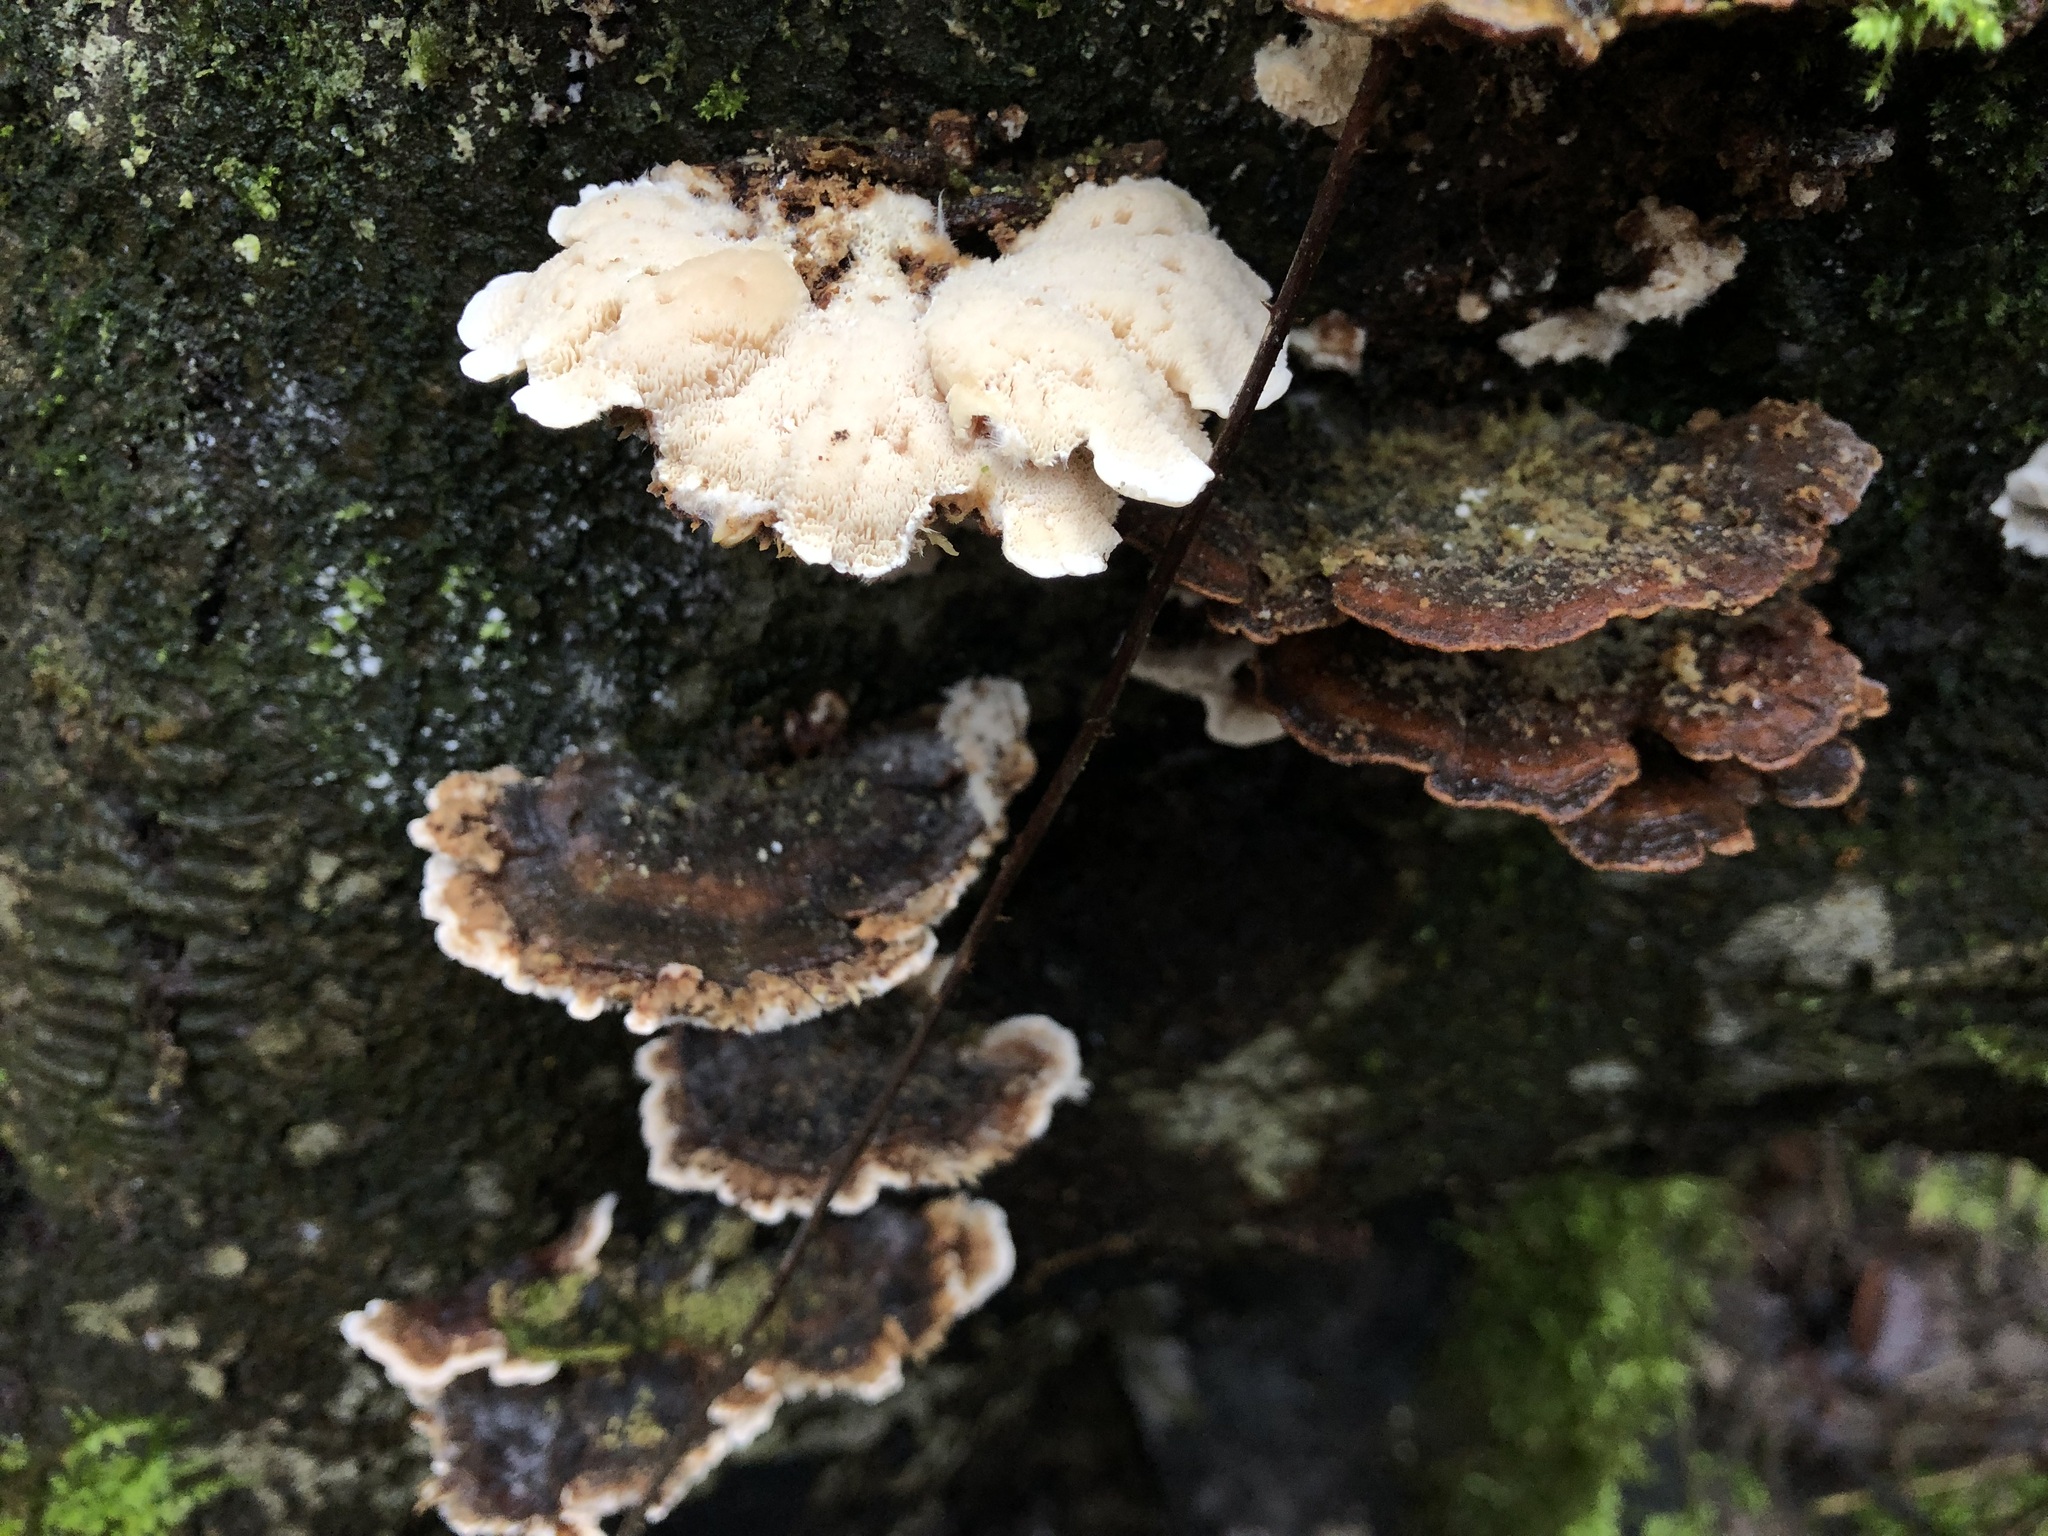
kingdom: Fungi
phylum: Basidiomycota
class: Agaricomycetes
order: Polyporales
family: Polyporaceae
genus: Trametes
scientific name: Trametes versicolor
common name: Turkeytail
